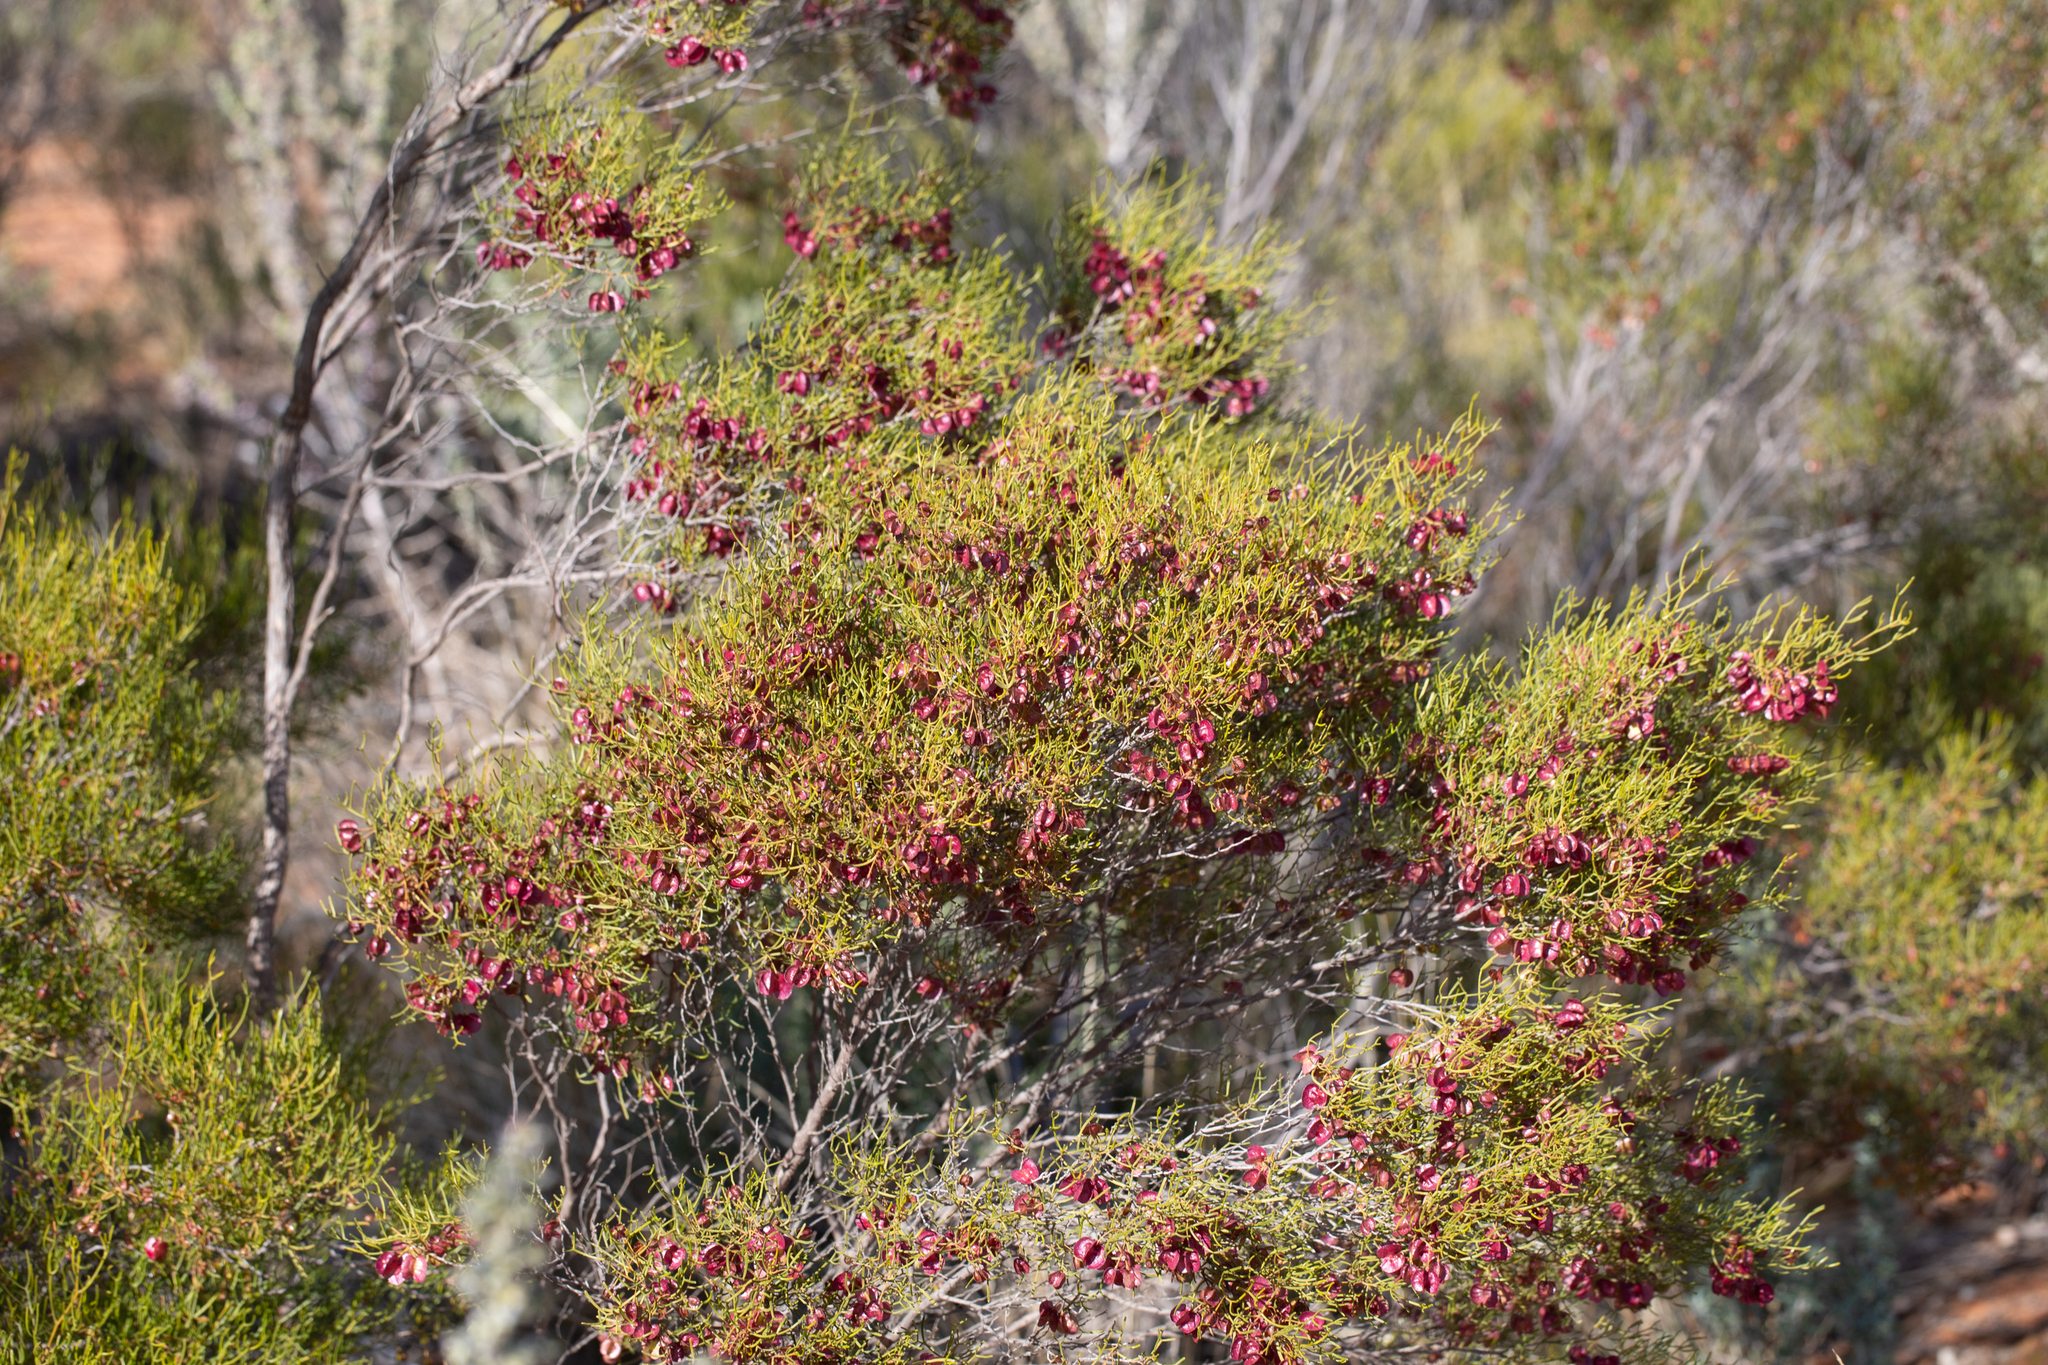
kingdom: Plantae
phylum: Tracheophyta
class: Magnoliopsida
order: Sapindales
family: Sapindaceae
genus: Dodonaea
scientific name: Dodonaea stenozyga
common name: Desert hopbush
